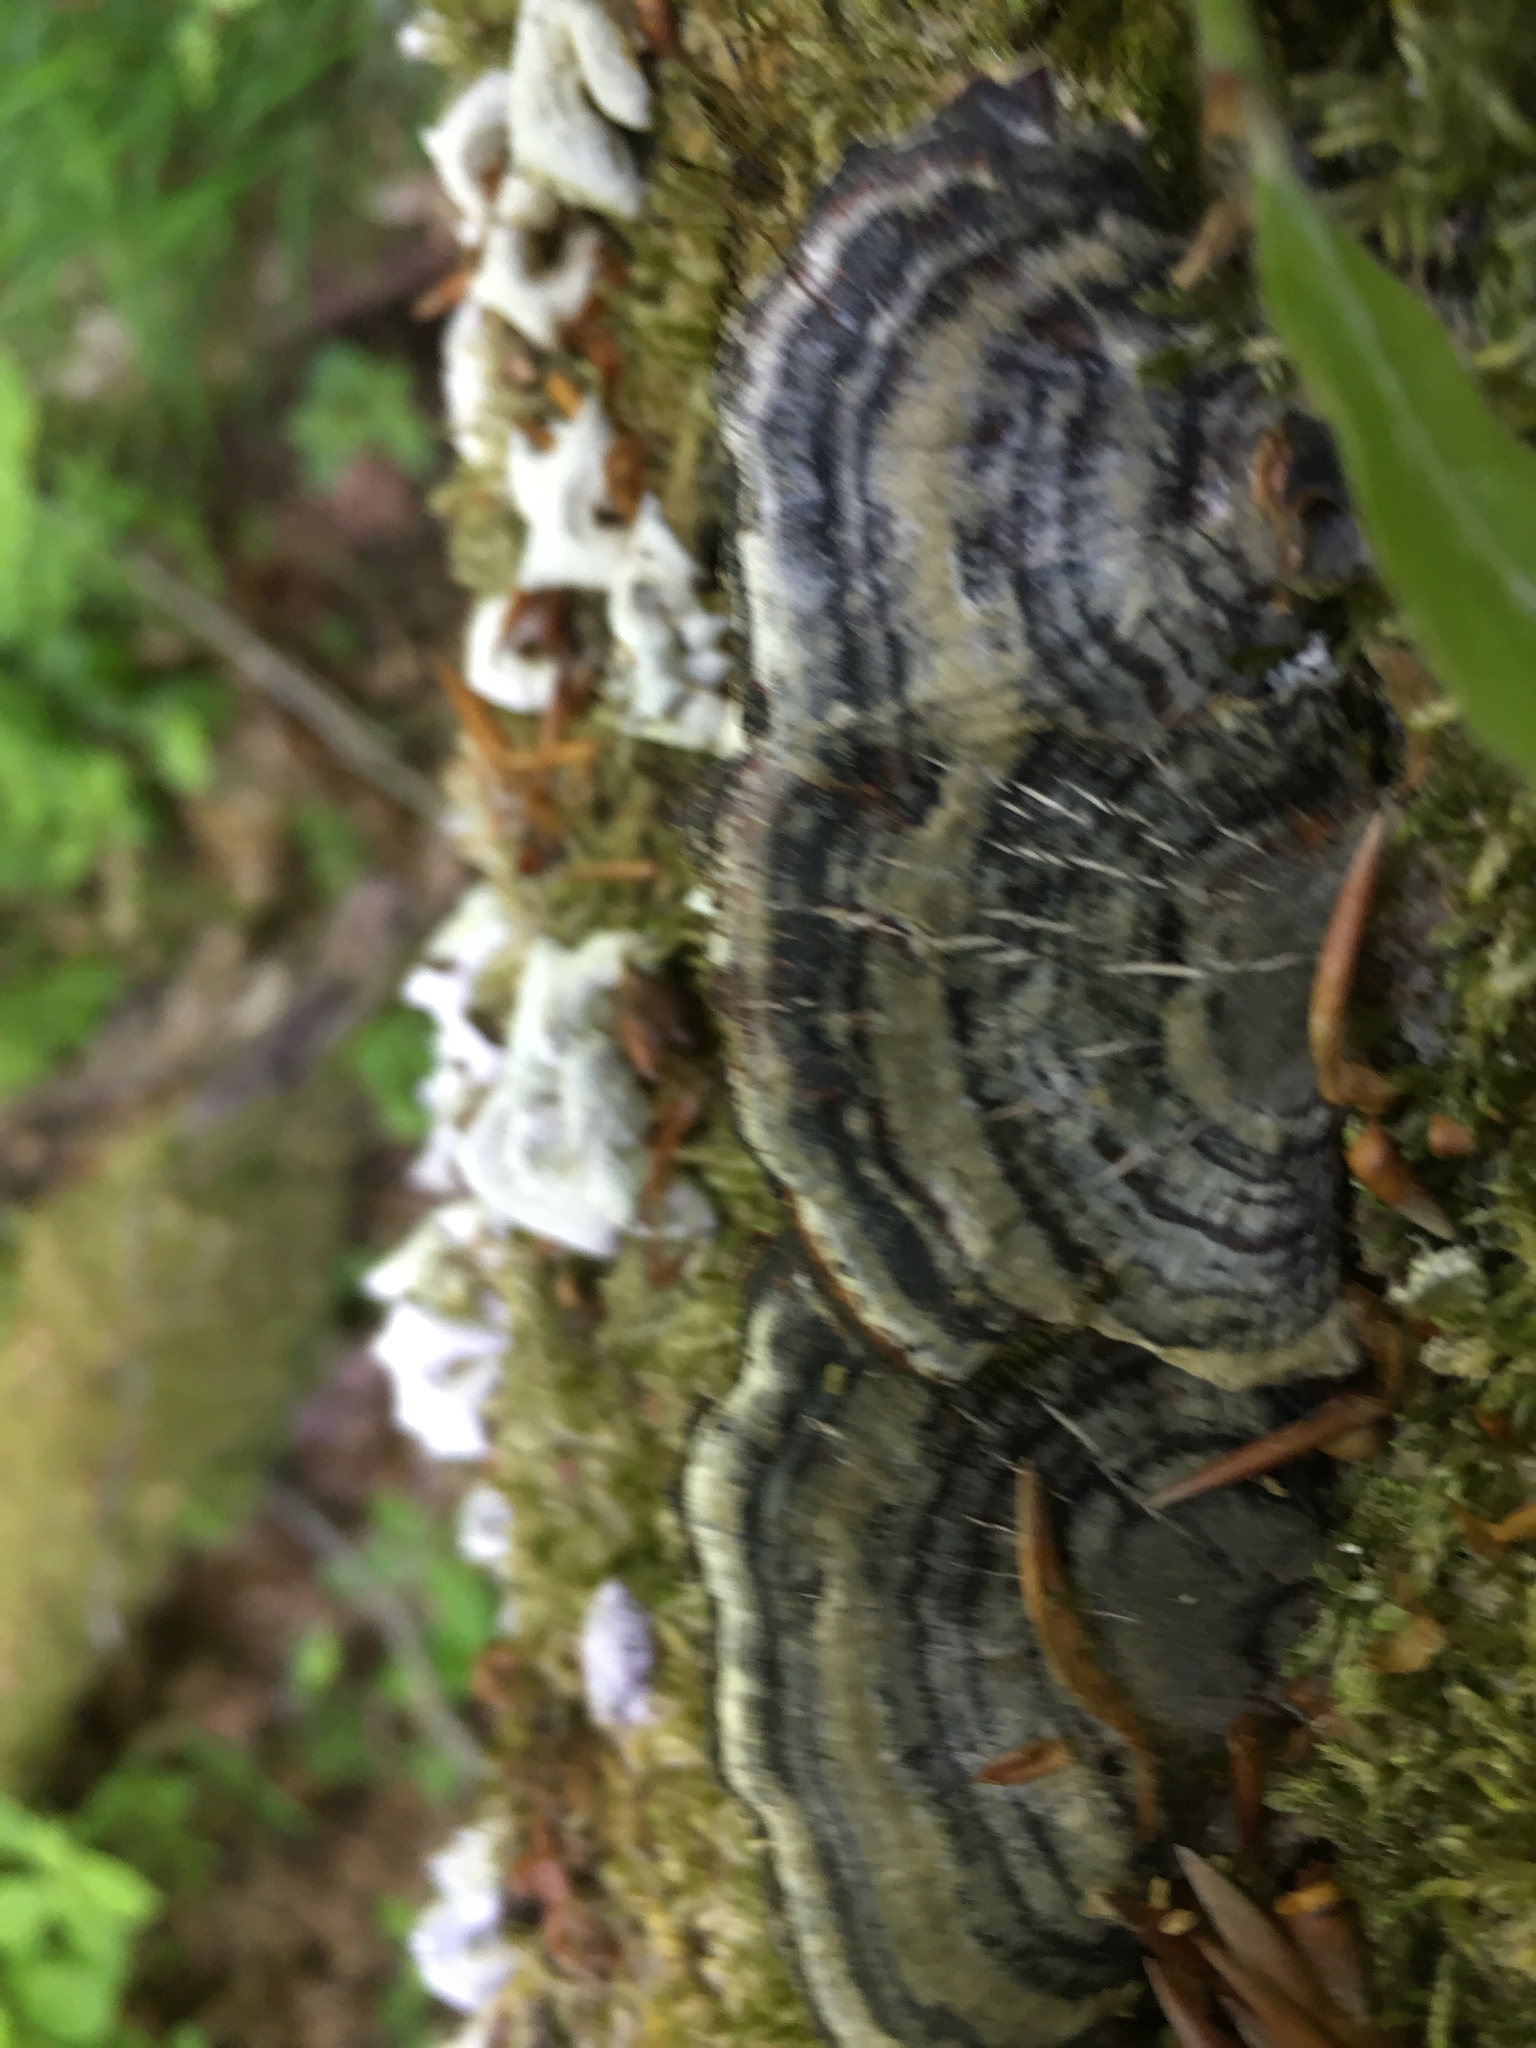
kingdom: Fungi
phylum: Basidiomycota
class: Agaricomycetes
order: Polyporales
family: Polyporaceae
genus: Trametes
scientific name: Trametes versicolor
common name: Turkeytail
